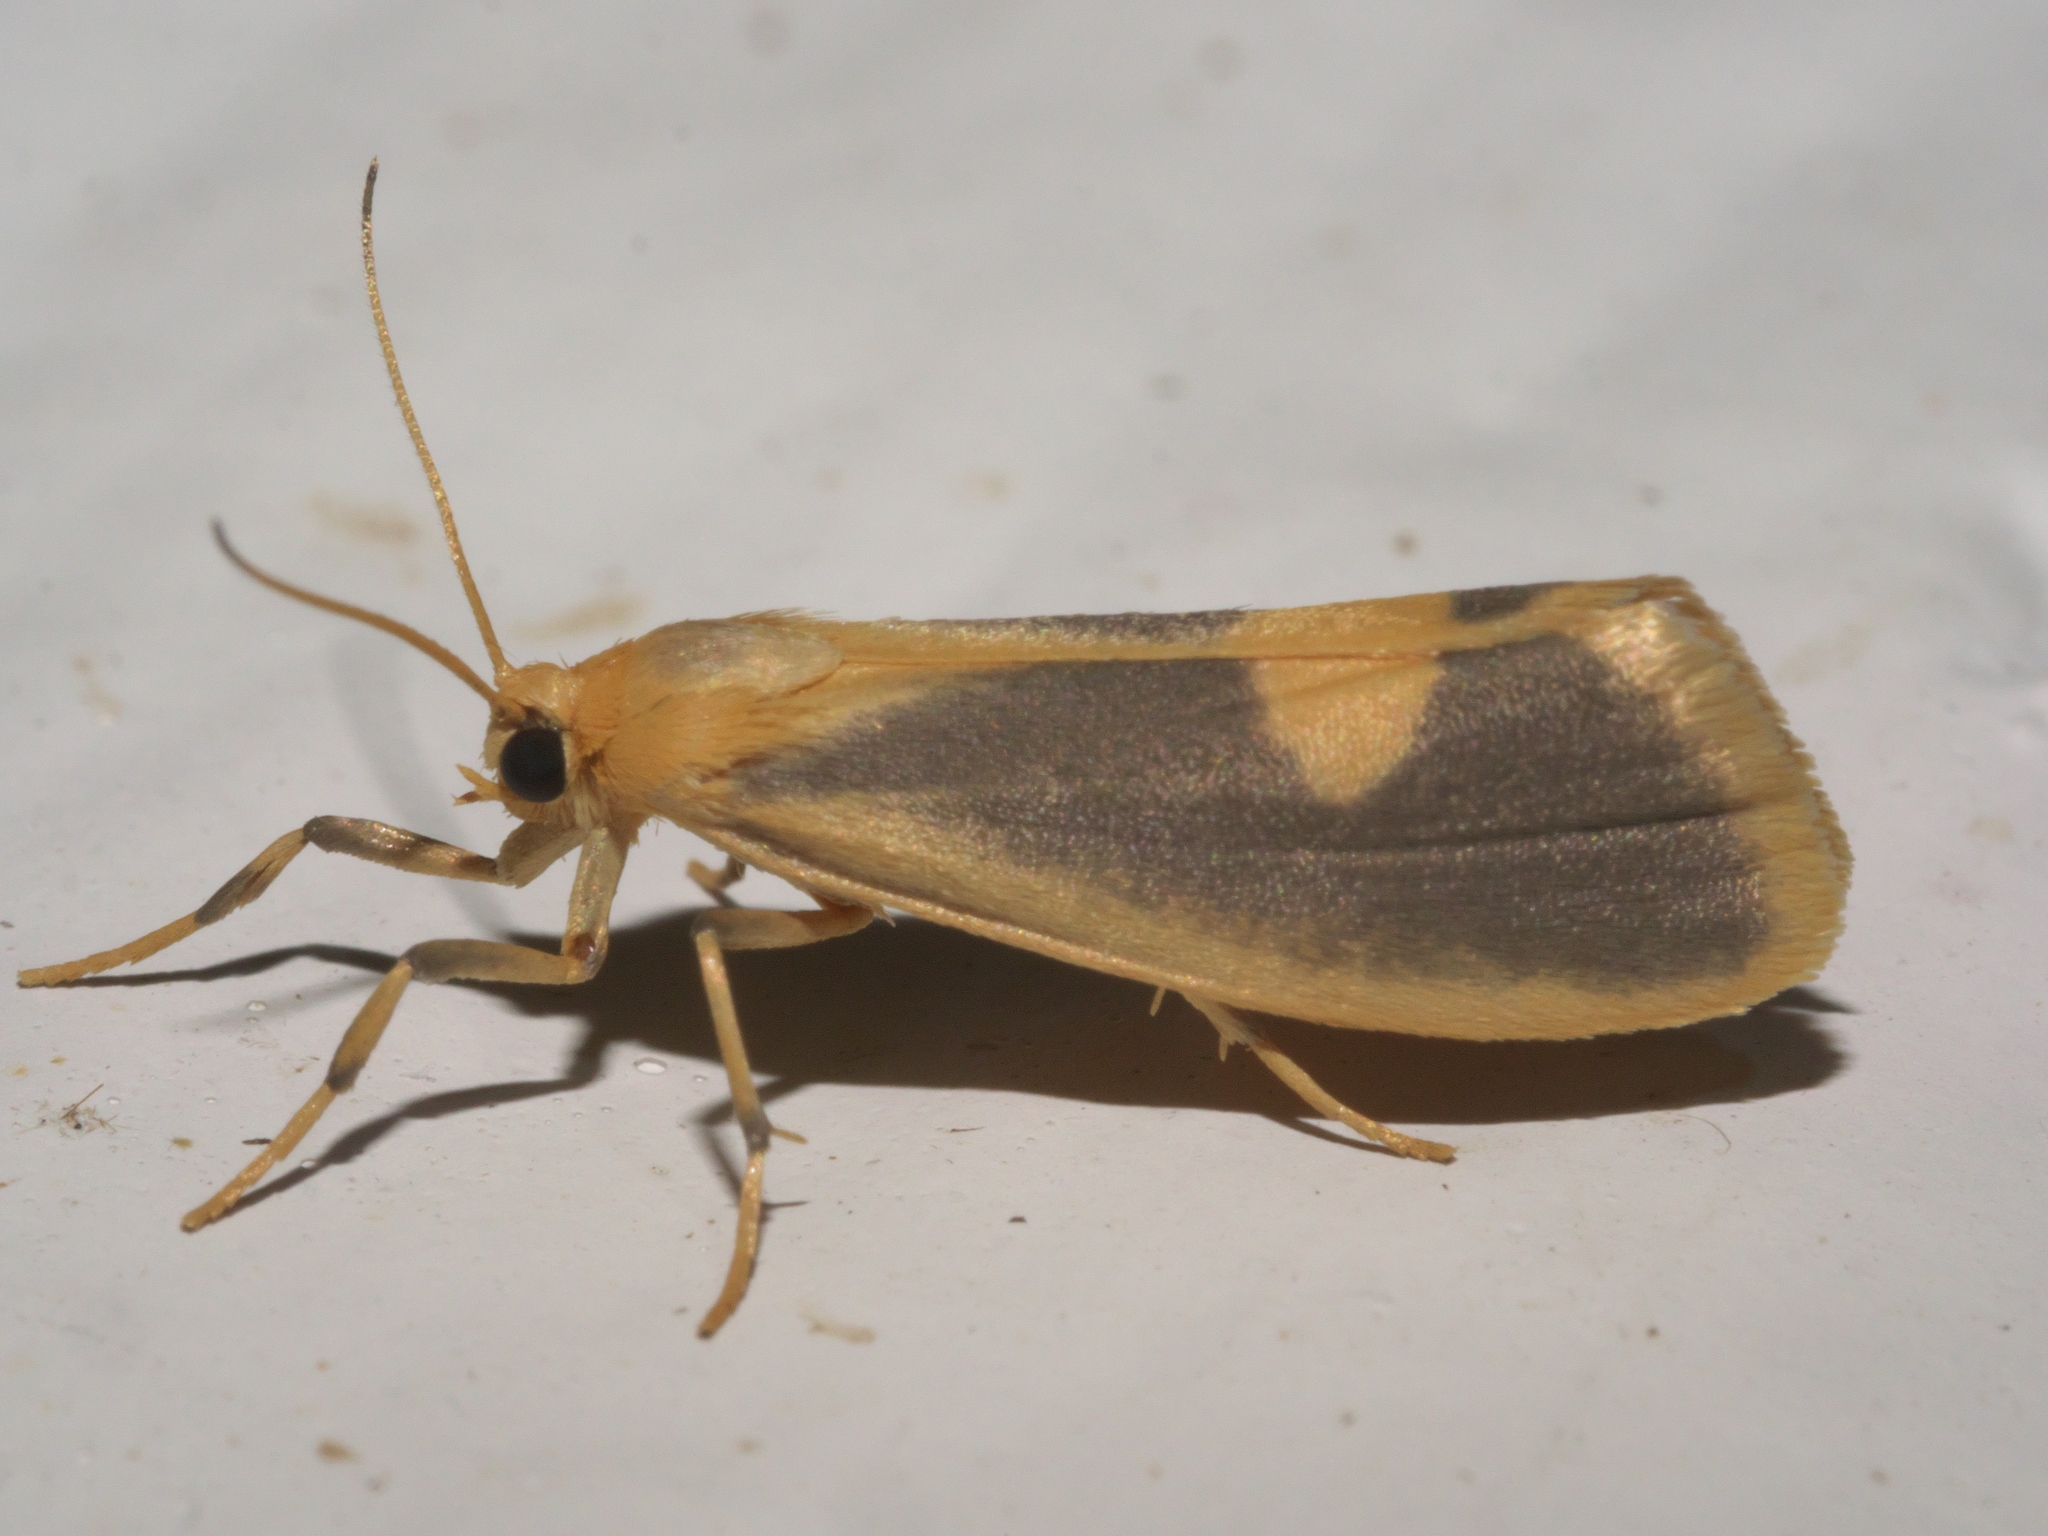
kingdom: Animalia
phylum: Arthropoda
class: Insecta
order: Lepidoptera
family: Erebidae
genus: Cisthene
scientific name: Cisthene plumbea
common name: Lead colored lichen moth
